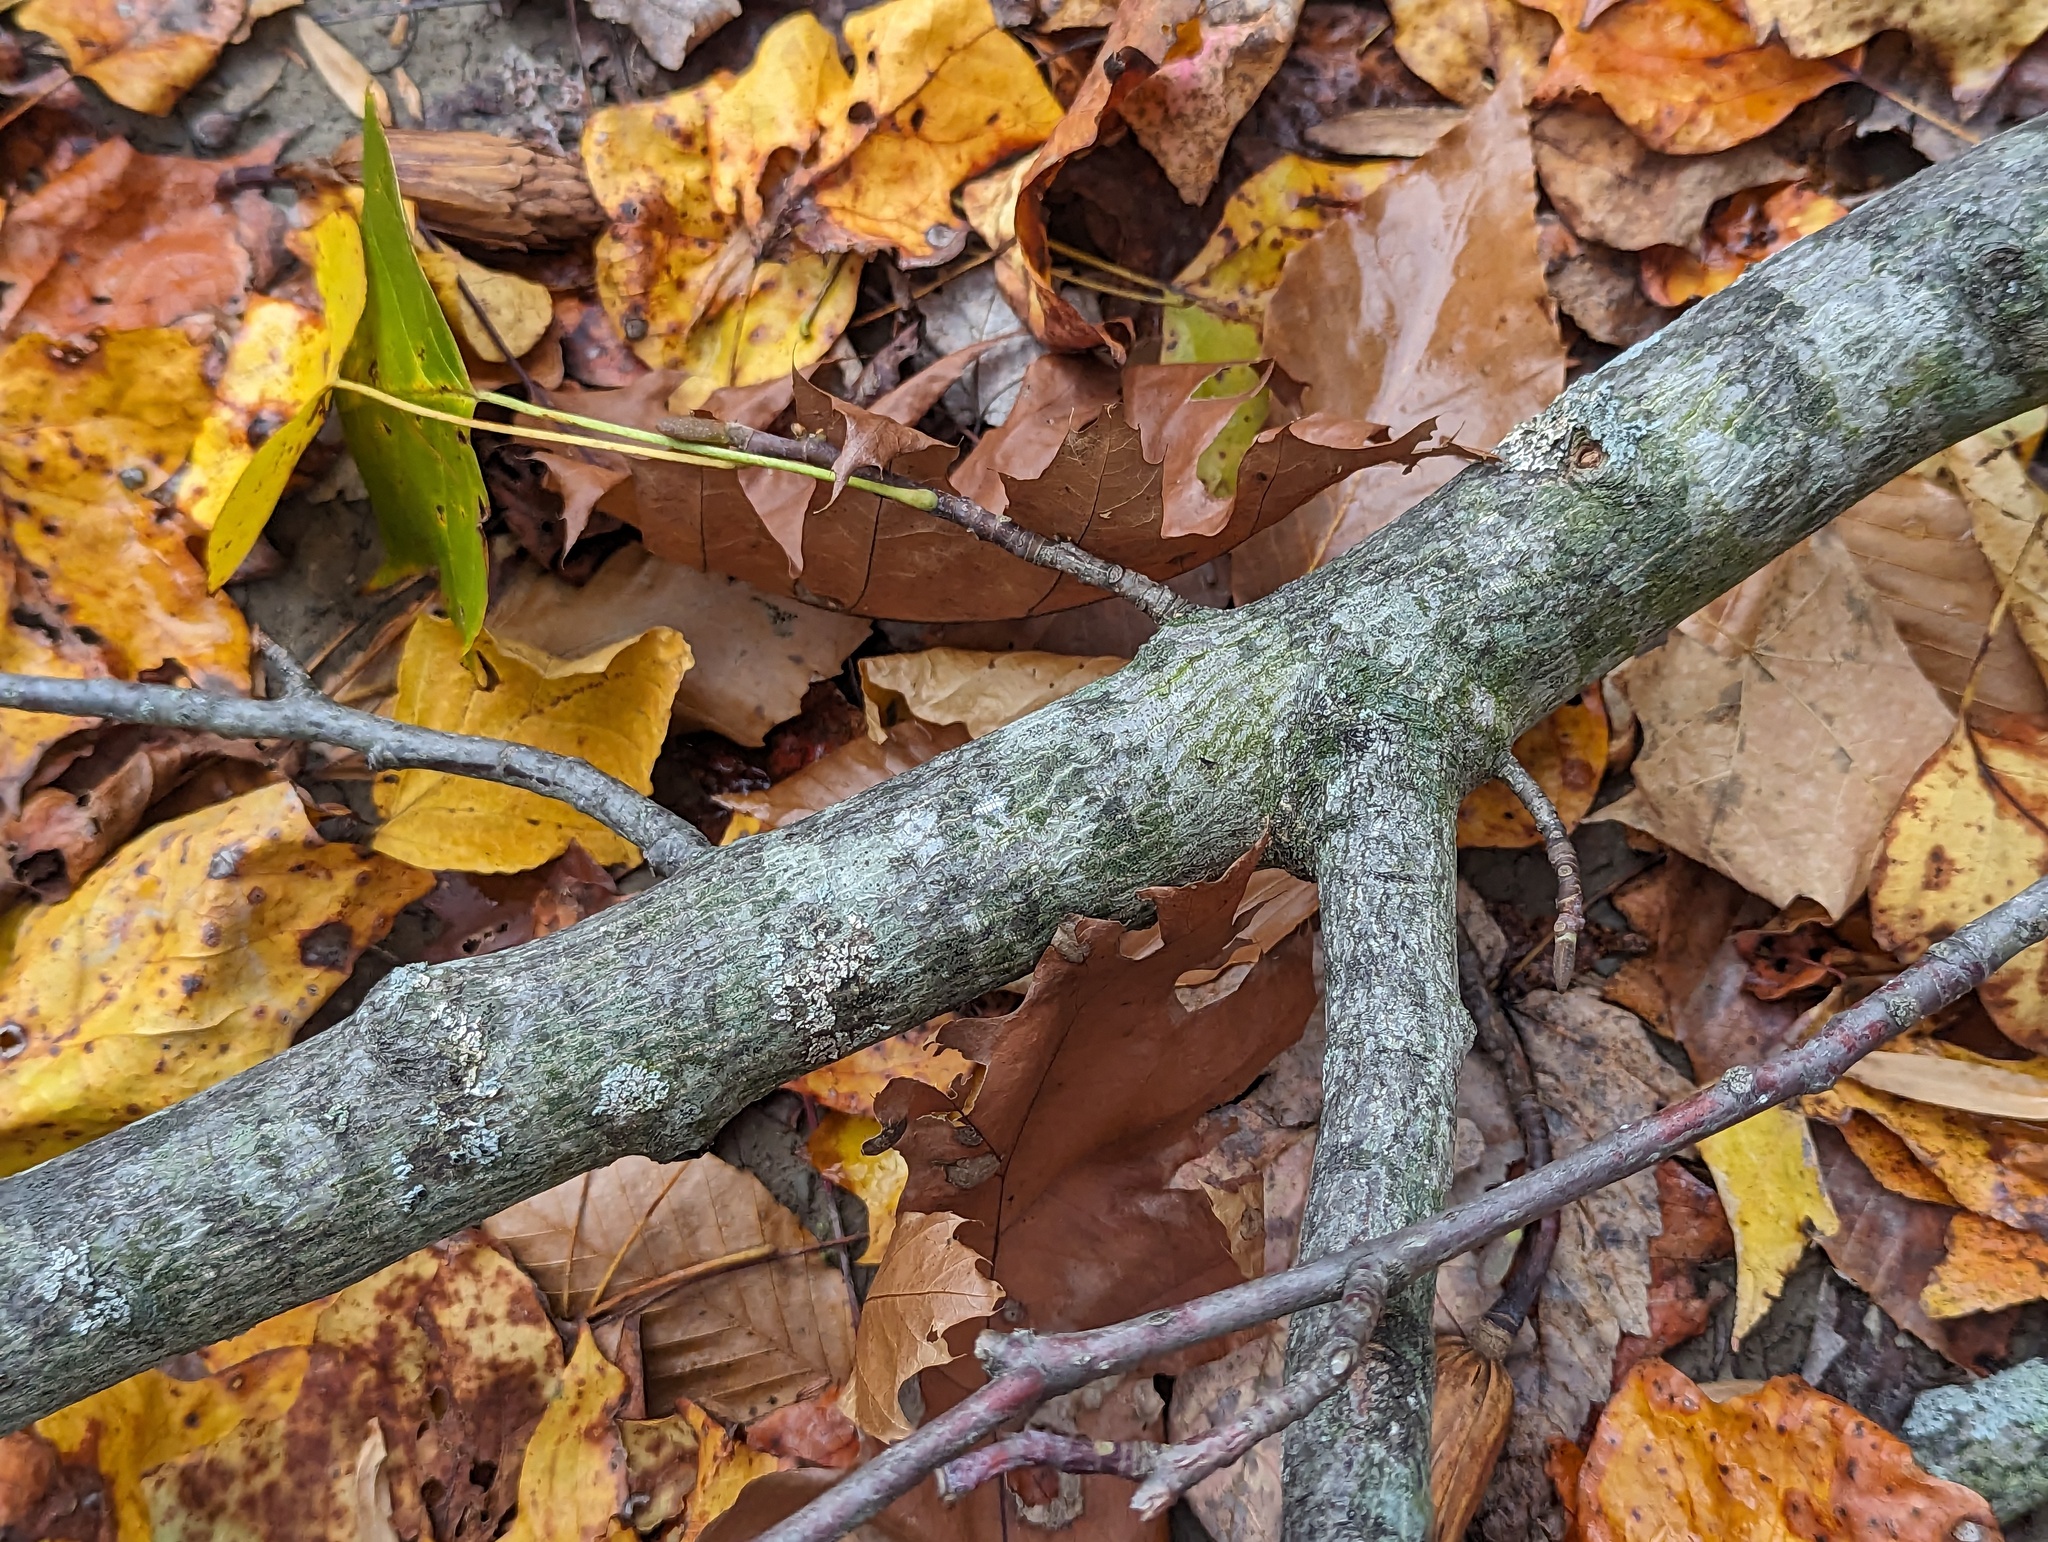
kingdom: Plantae
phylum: Tracheophyta
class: Magnoliopsida
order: Magnoliales
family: Magnoliaceae
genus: Liriodendron
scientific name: Liriodendron tulipifera
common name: Tulip tree
